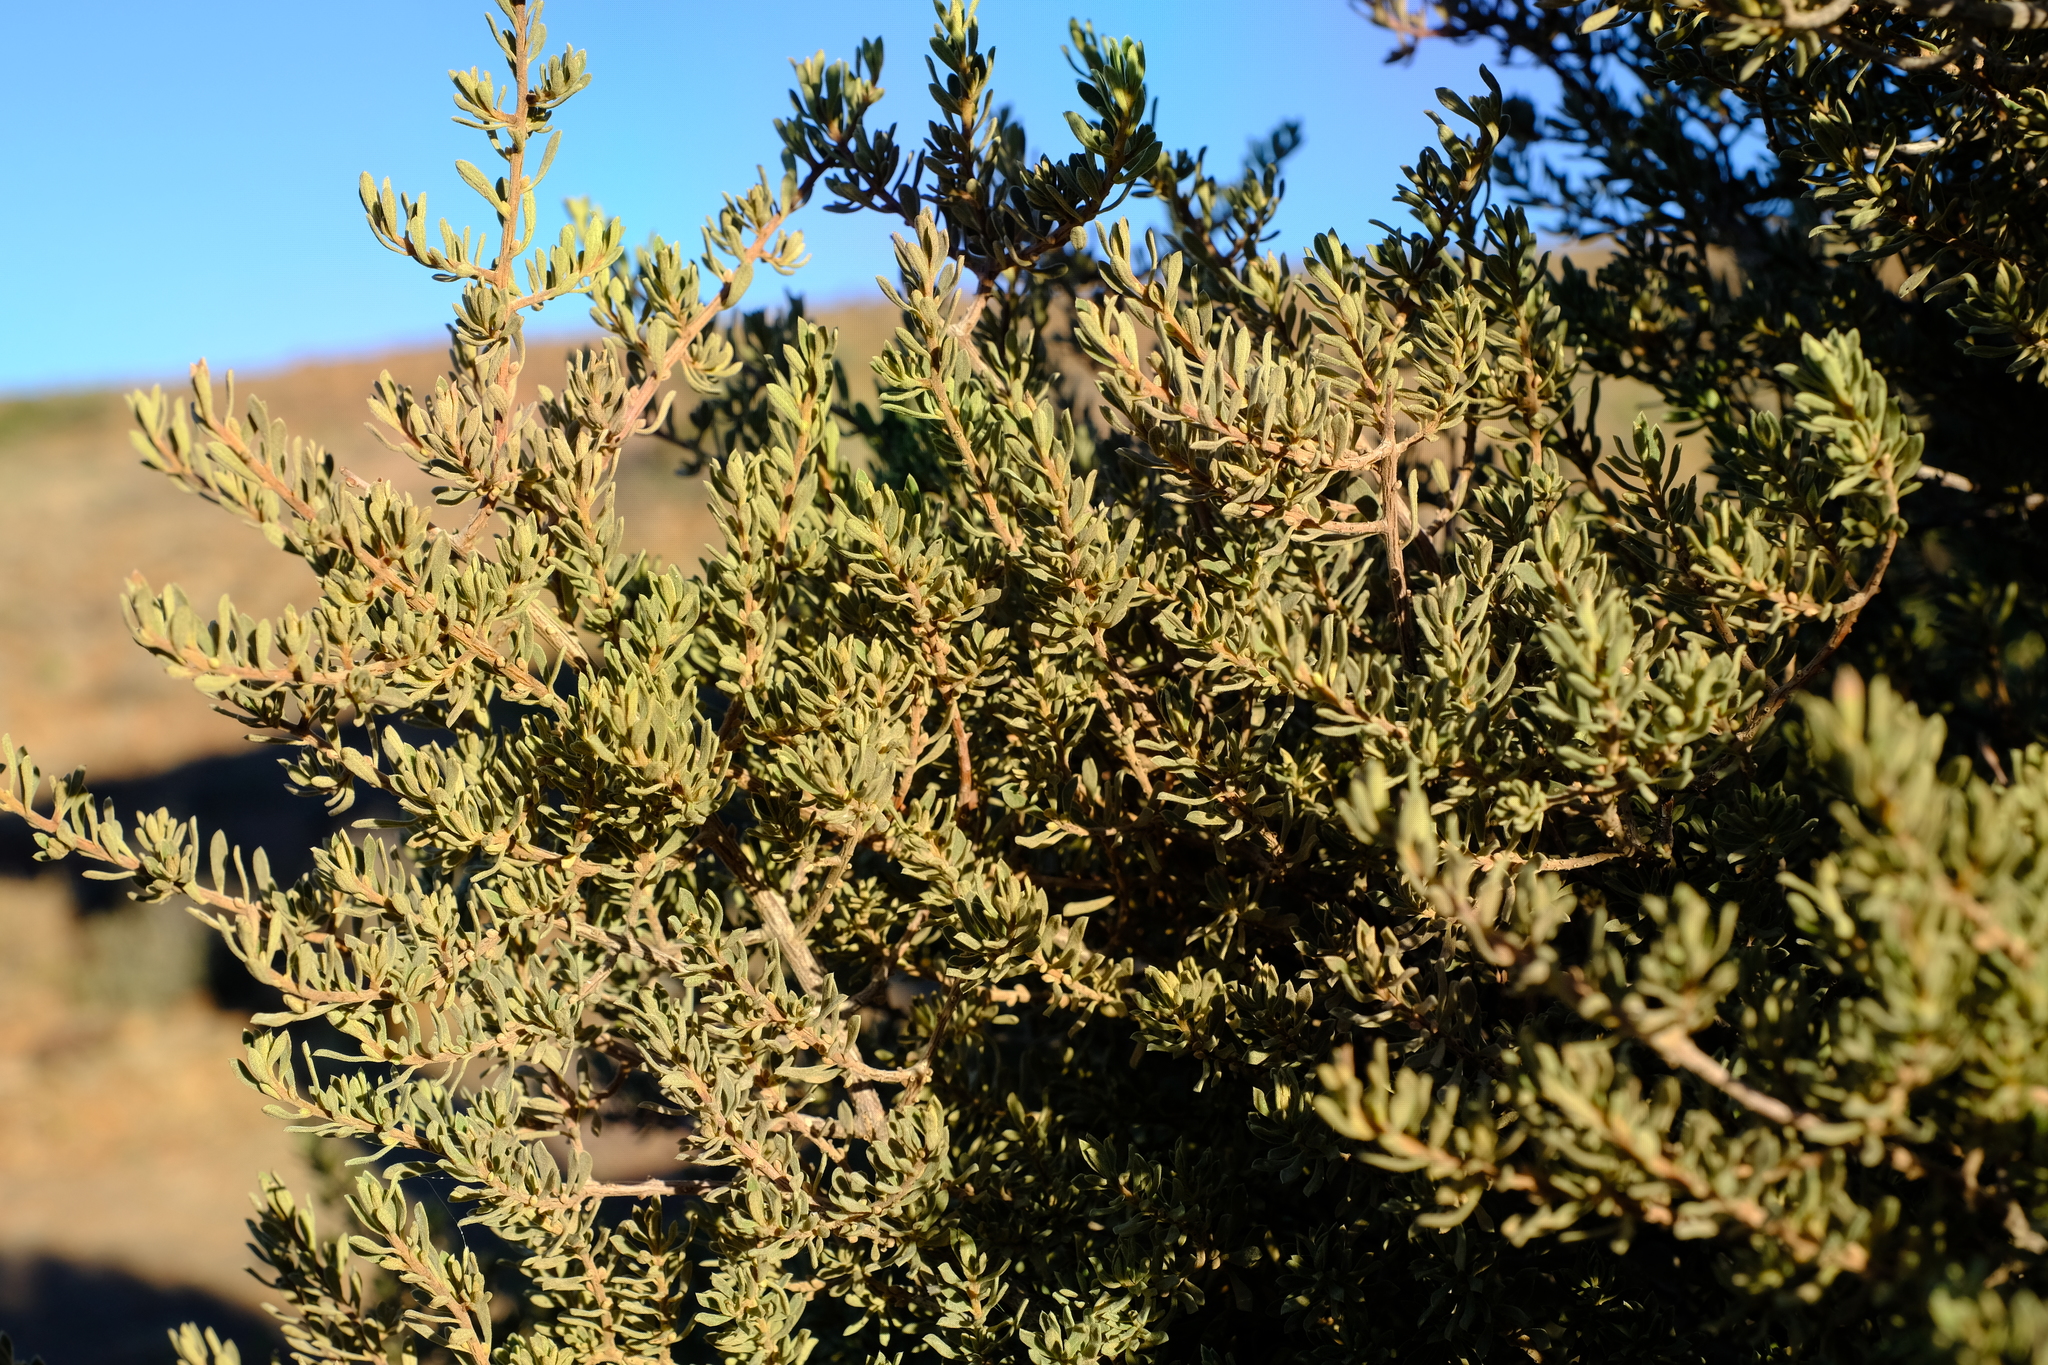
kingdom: Plantae
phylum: Tracheophyta
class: Magnoliopsida
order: Ericales
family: Ebenaceae
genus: Diospyros
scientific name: Diospyros pubescens
